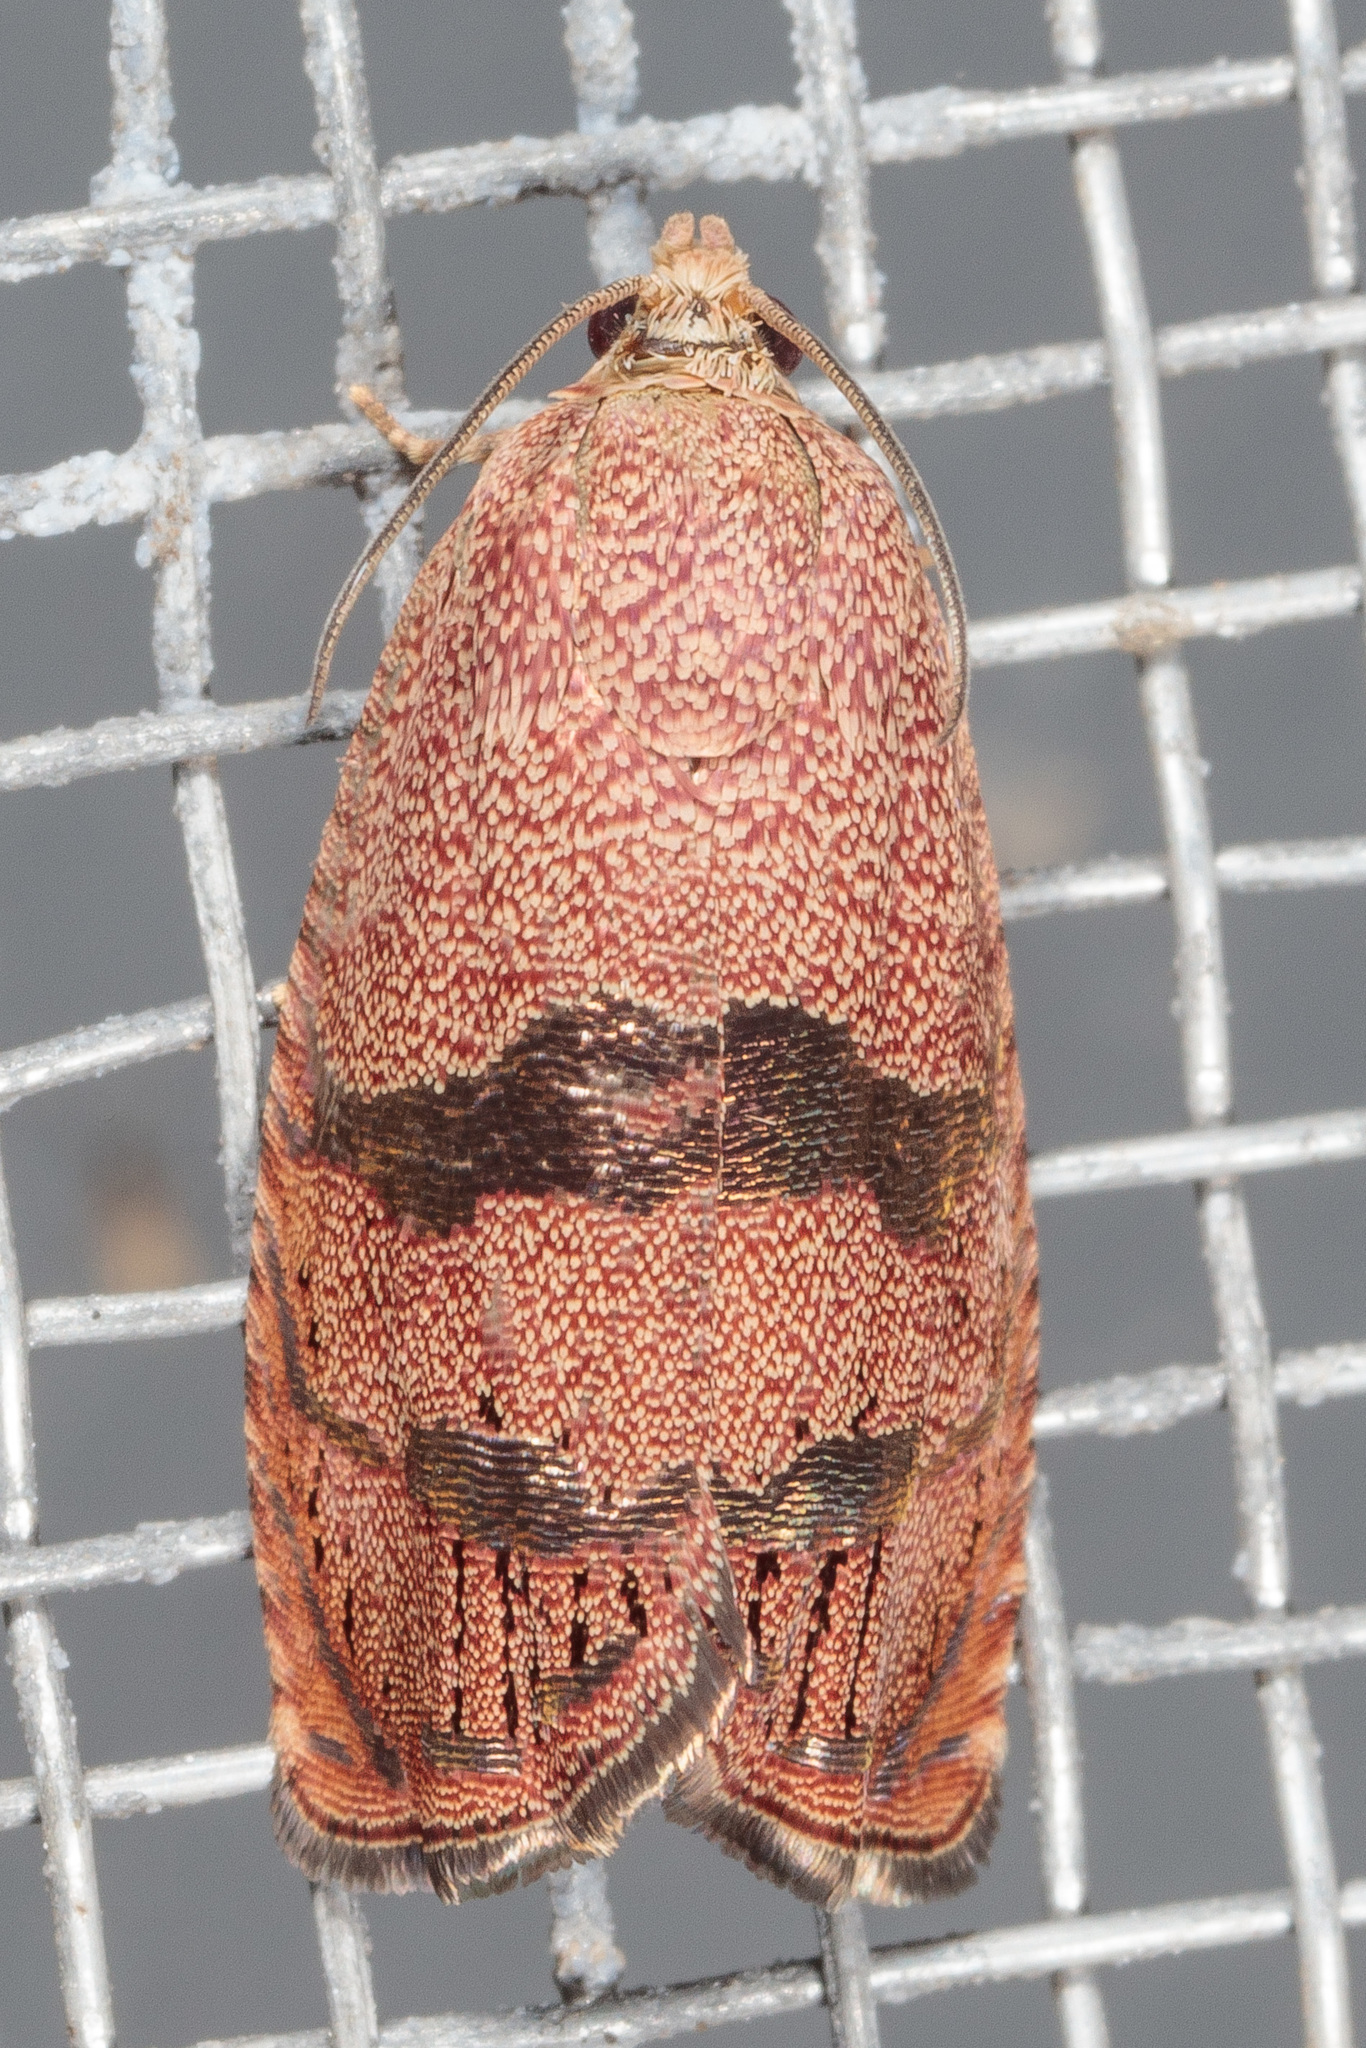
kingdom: Animalia
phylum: Arthropoda
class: Insecta
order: Lepidoptera
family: Tortricidae
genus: Cydia
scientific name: Cydia latiferreana
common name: Filbertworm moth
